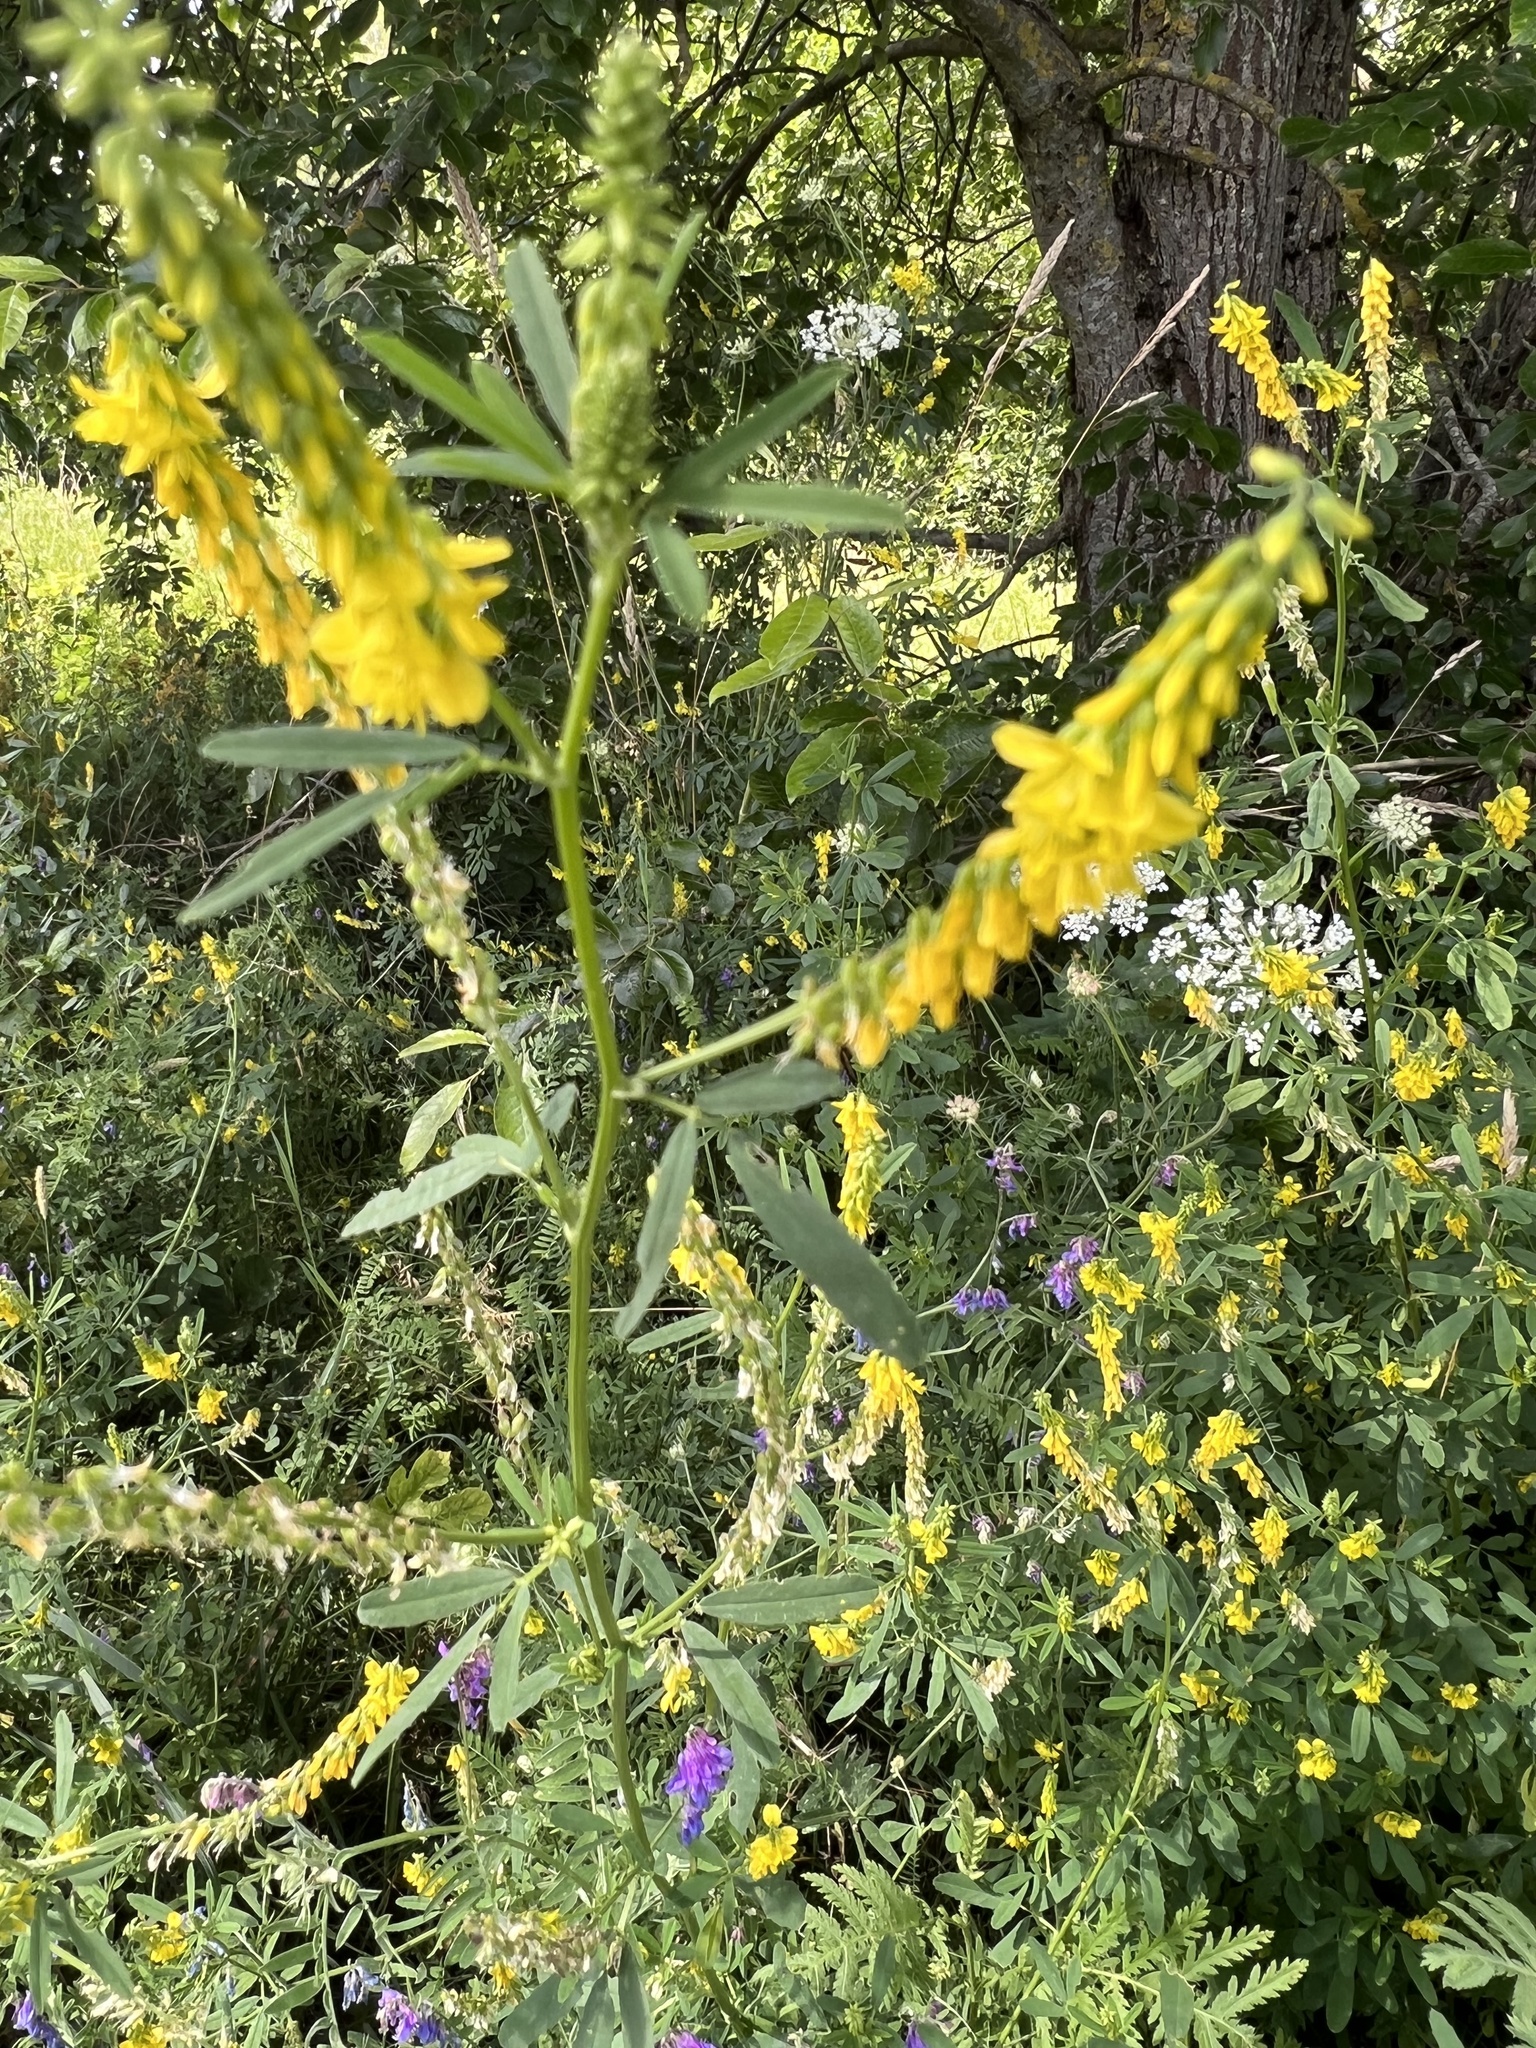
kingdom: Plantae
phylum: Tracheophyta
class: Magnoliopsida
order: Fabales
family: Fabaceae
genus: Melilotus
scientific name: Melilotus officinalis
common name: Sweetclover
